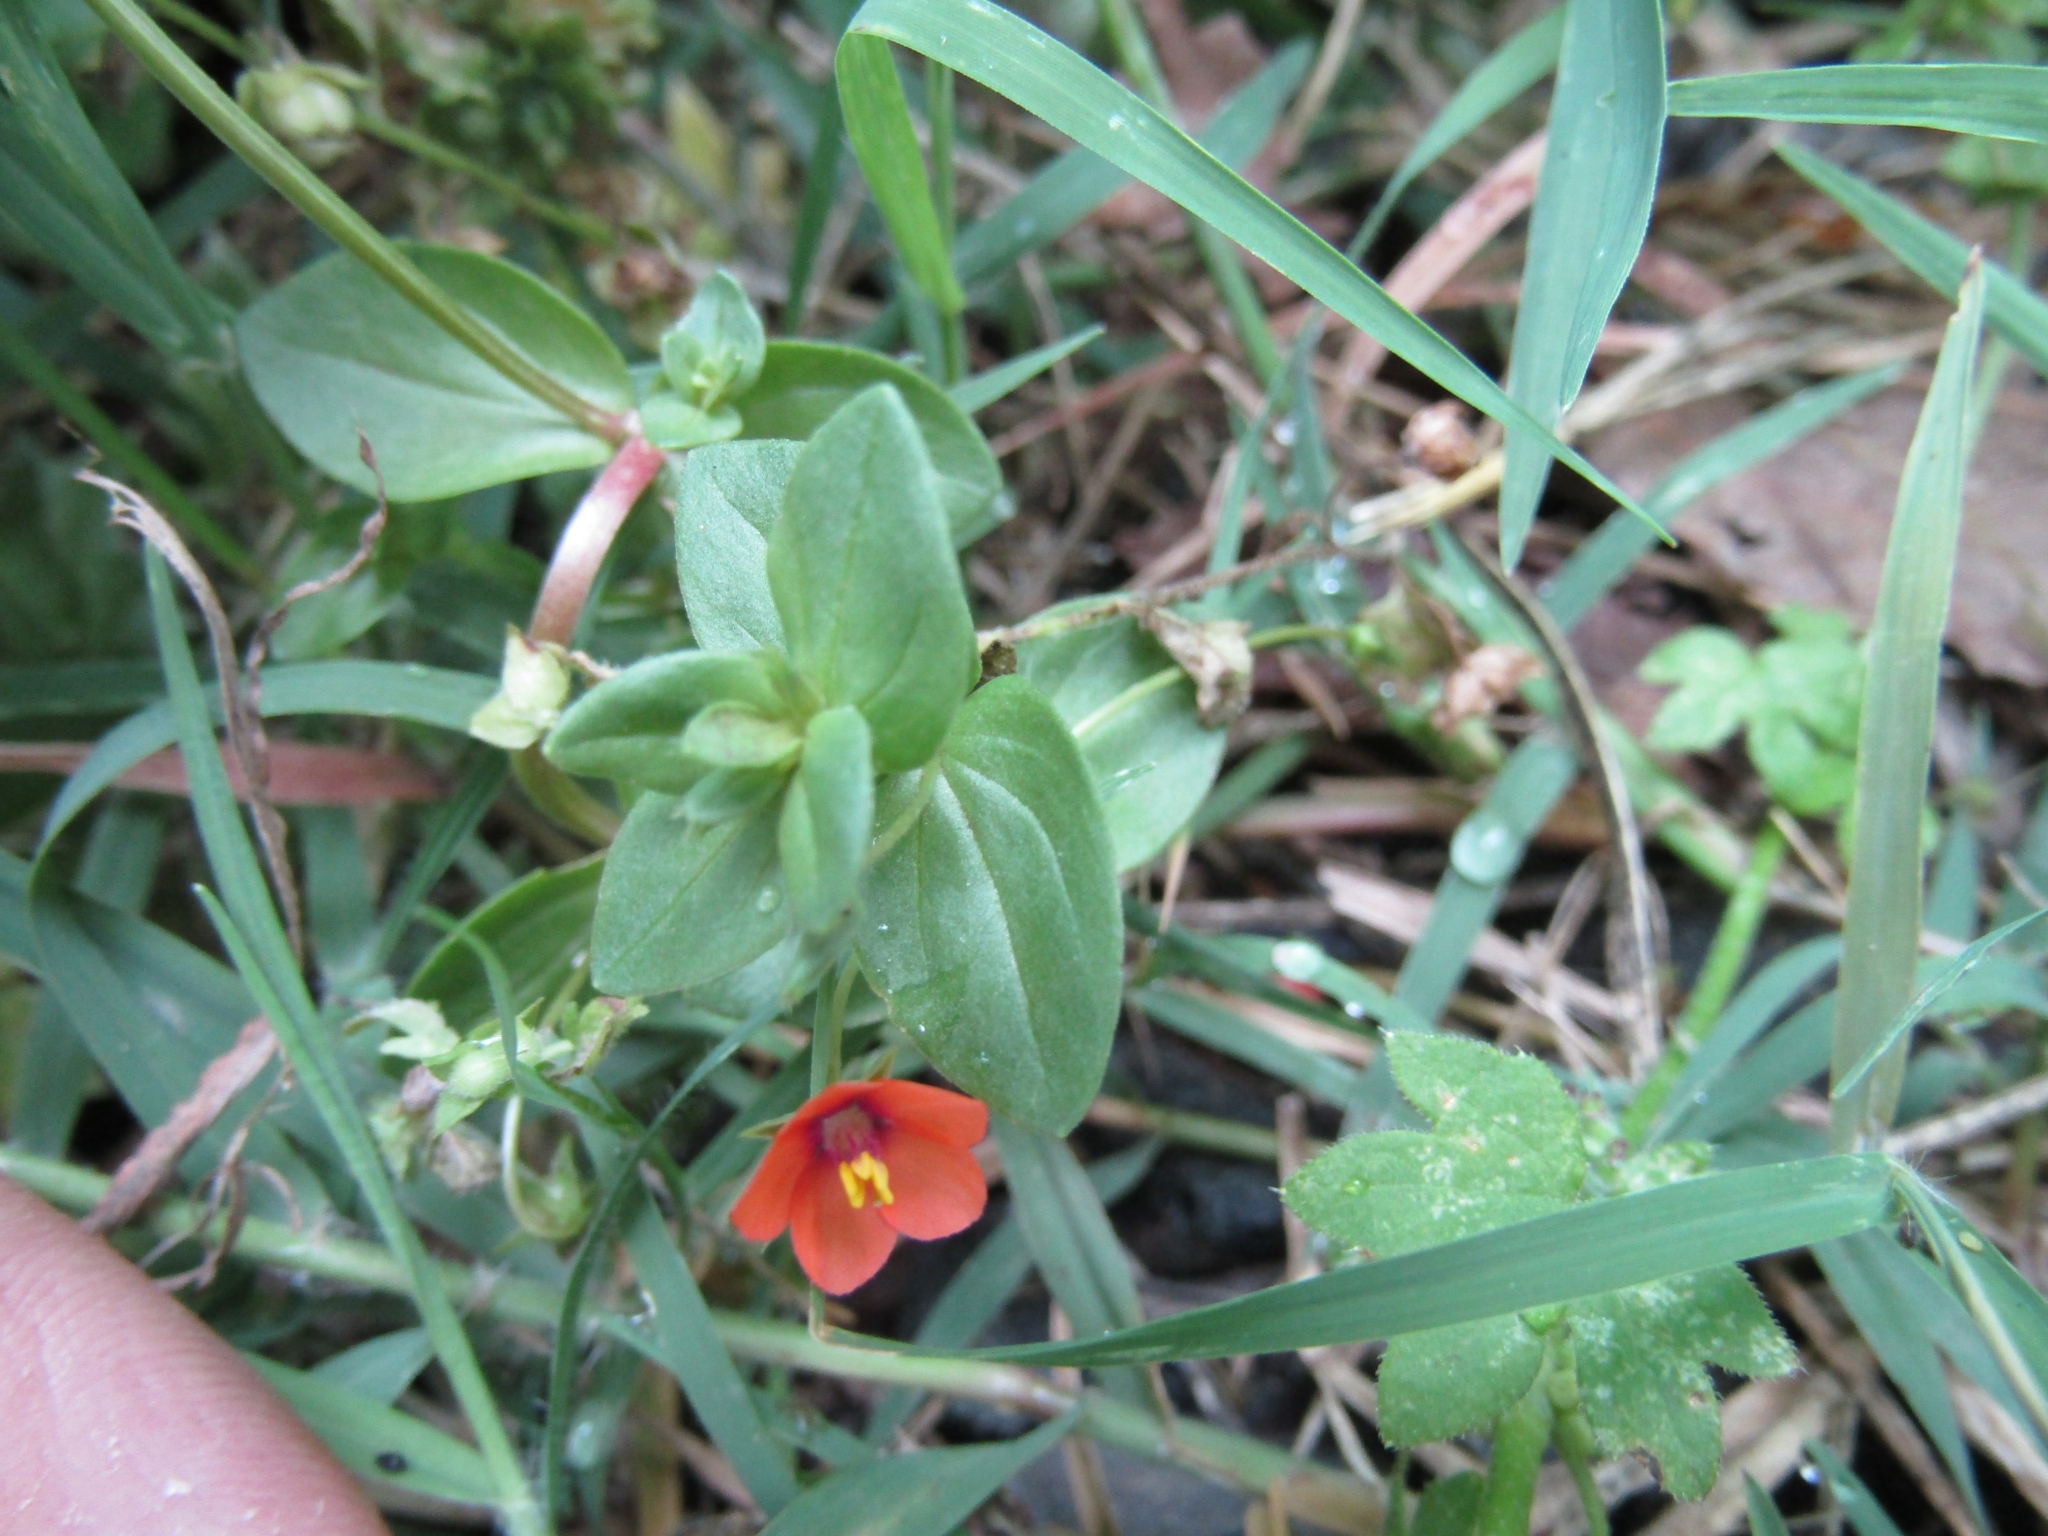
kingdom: Plantae
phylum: Tracheophyta
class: Magnoliopsida
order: Ericales
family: Primulaceae
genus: Lysimachia
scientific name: Lysimachia arvensis
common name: Scarlet pimpernel
